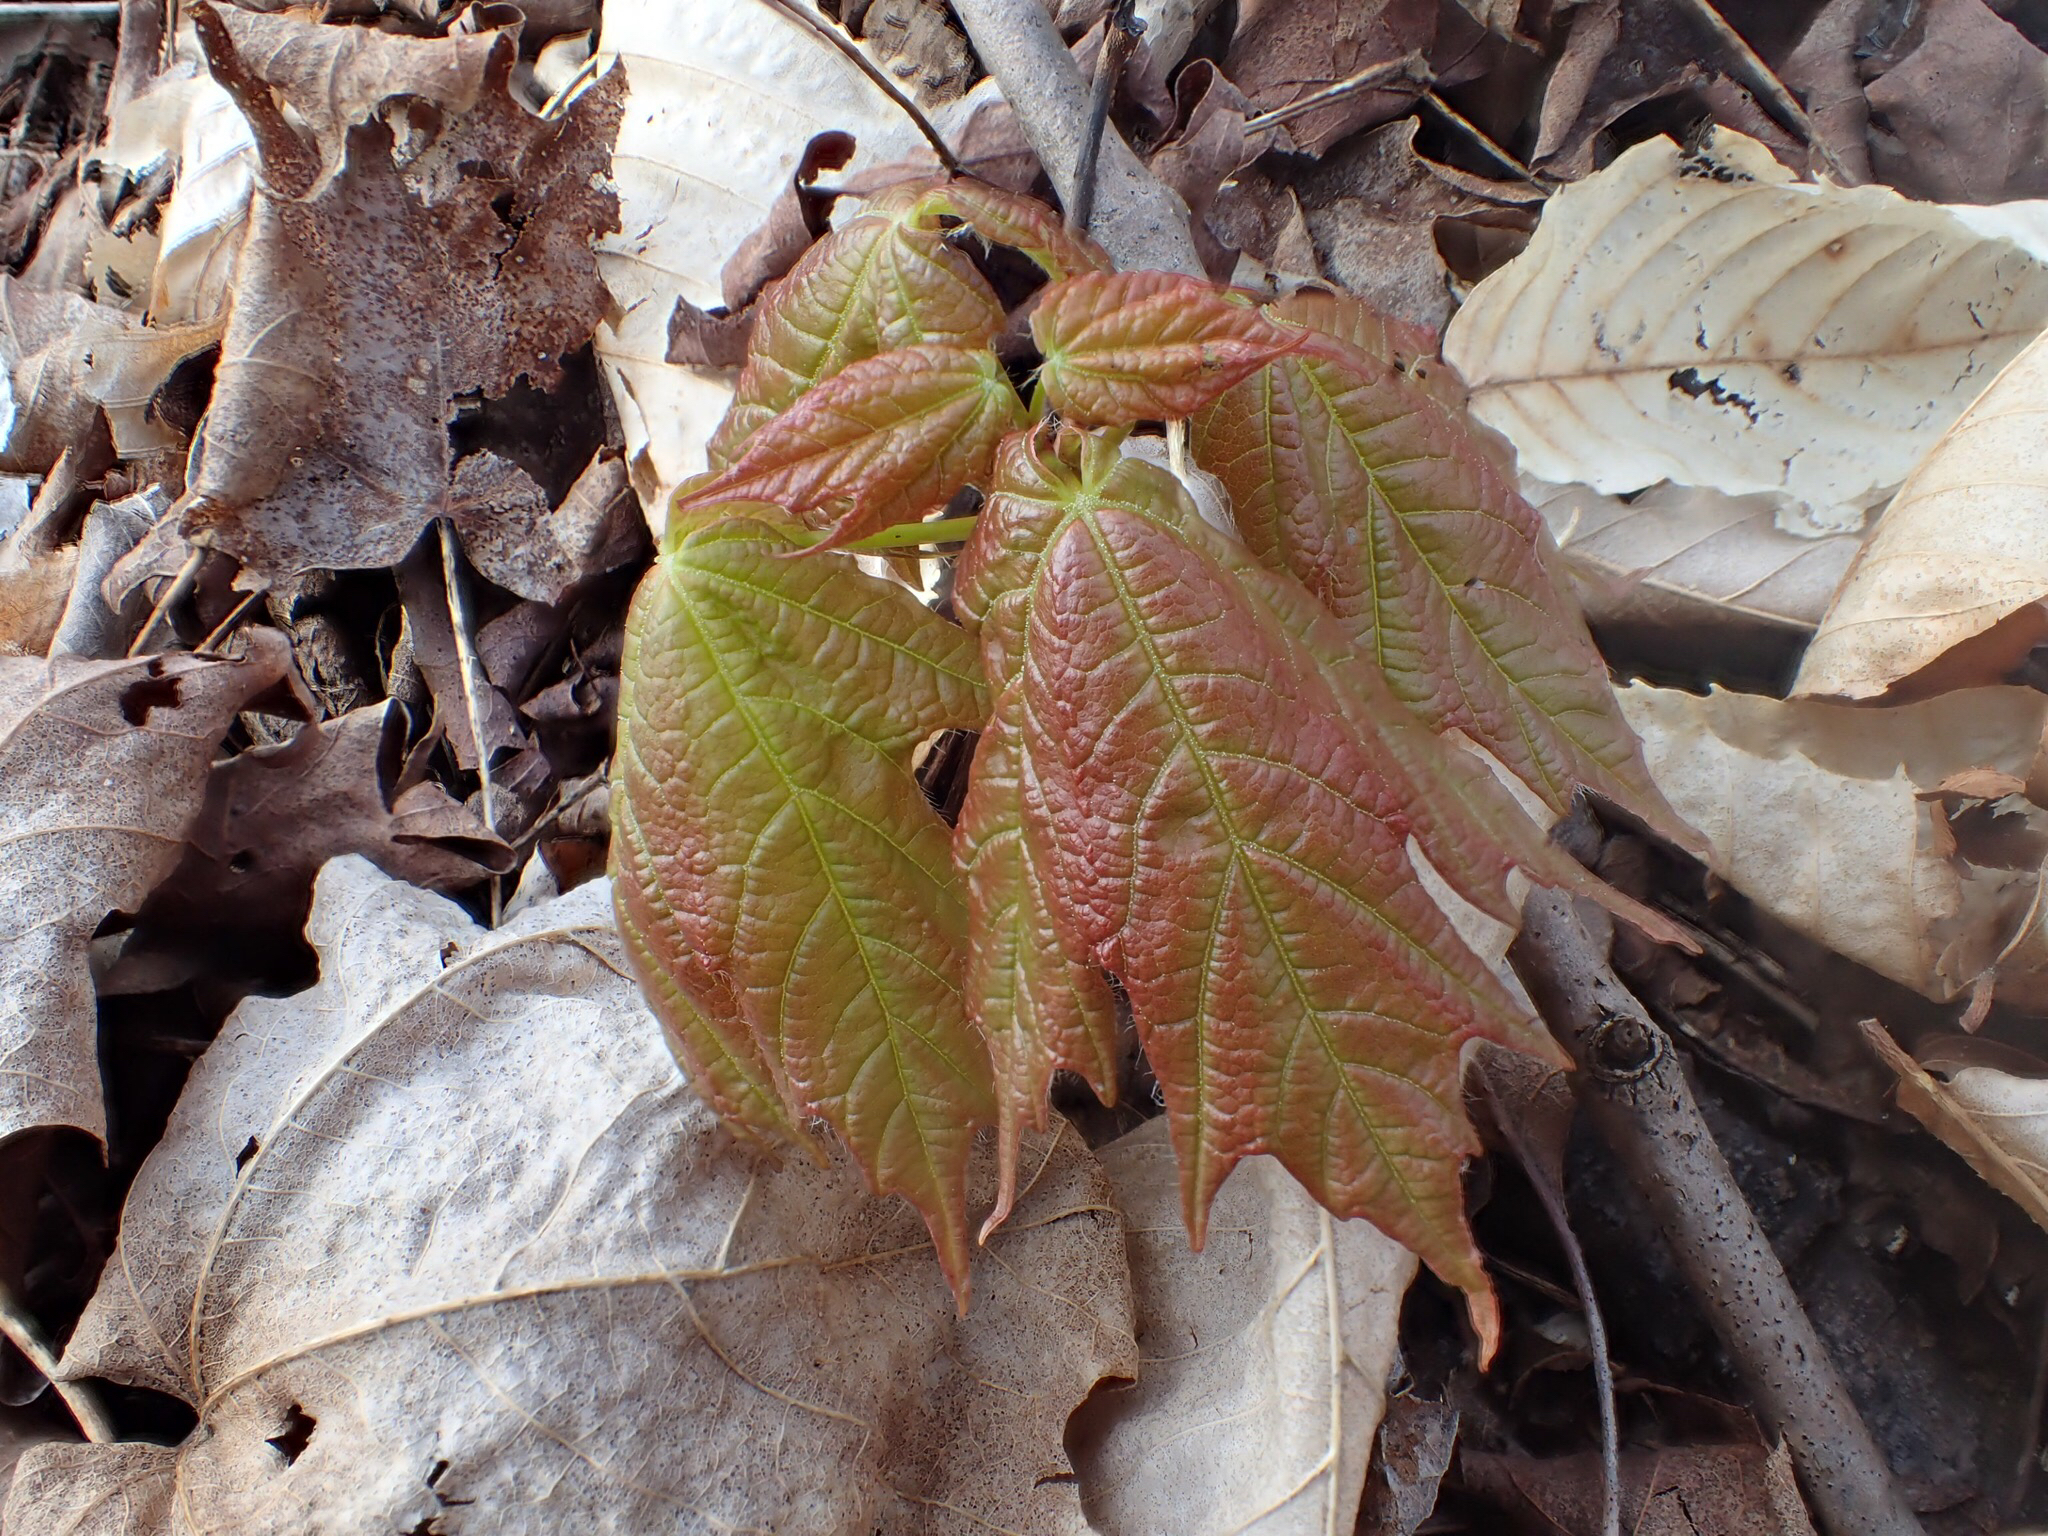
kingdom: Plantae
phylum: Tracheophyta
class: Magnoliopsida
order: Sapindales
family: Sapindaceae
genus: Acer
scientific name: Acer saccharum
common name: Sugar maple
